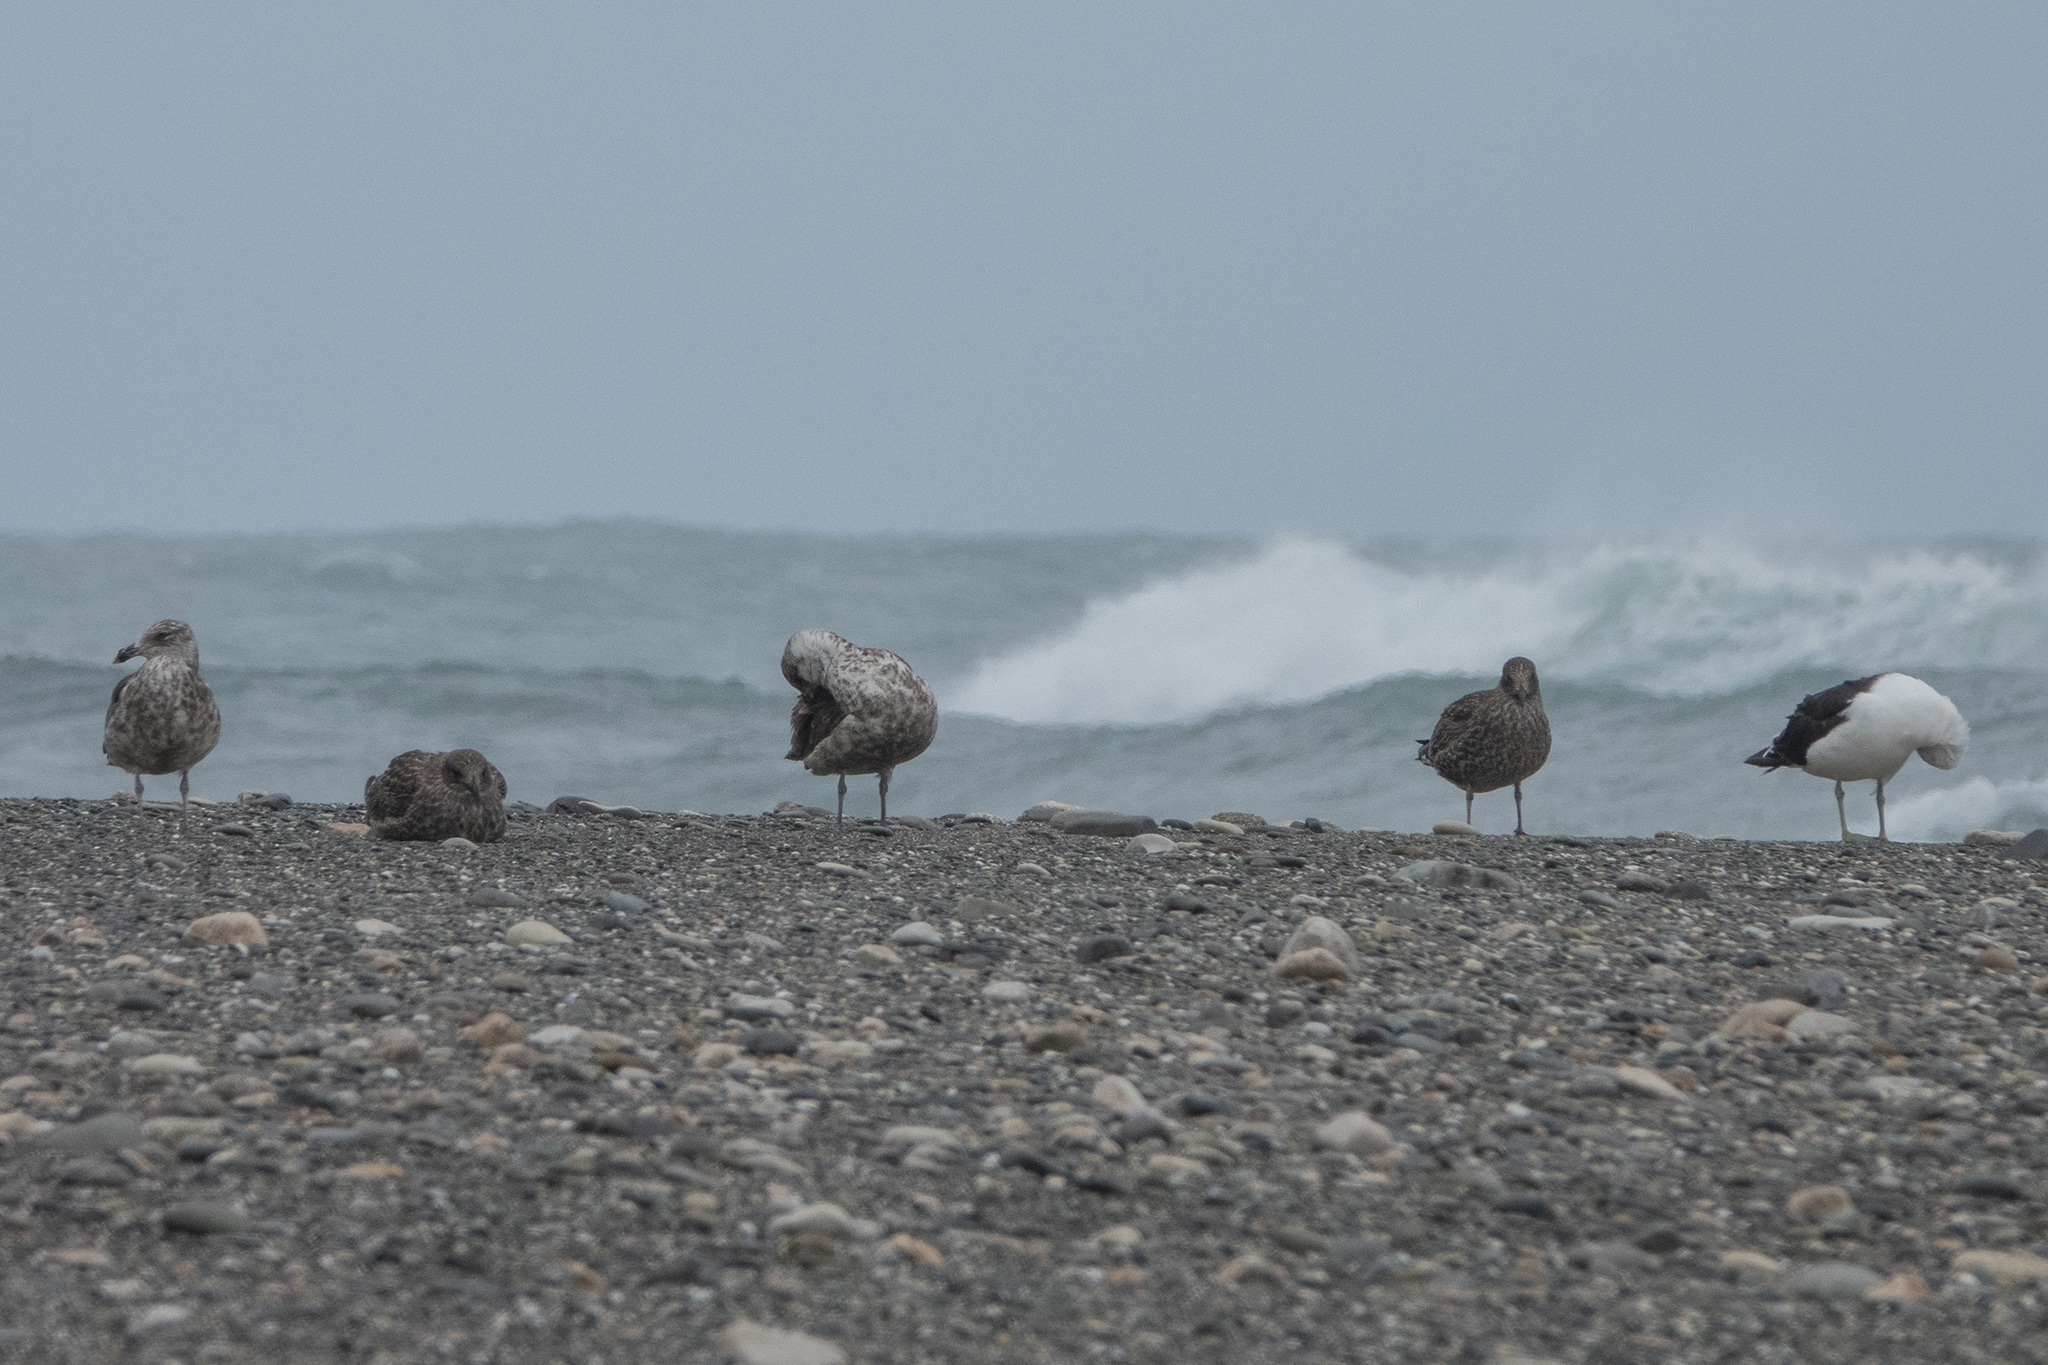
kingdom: Animalia
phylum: Chordata
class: Aves
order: Charadriiformes
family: Laridae
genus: Larus
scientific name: Larus dominicanus
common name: Kelp gull
